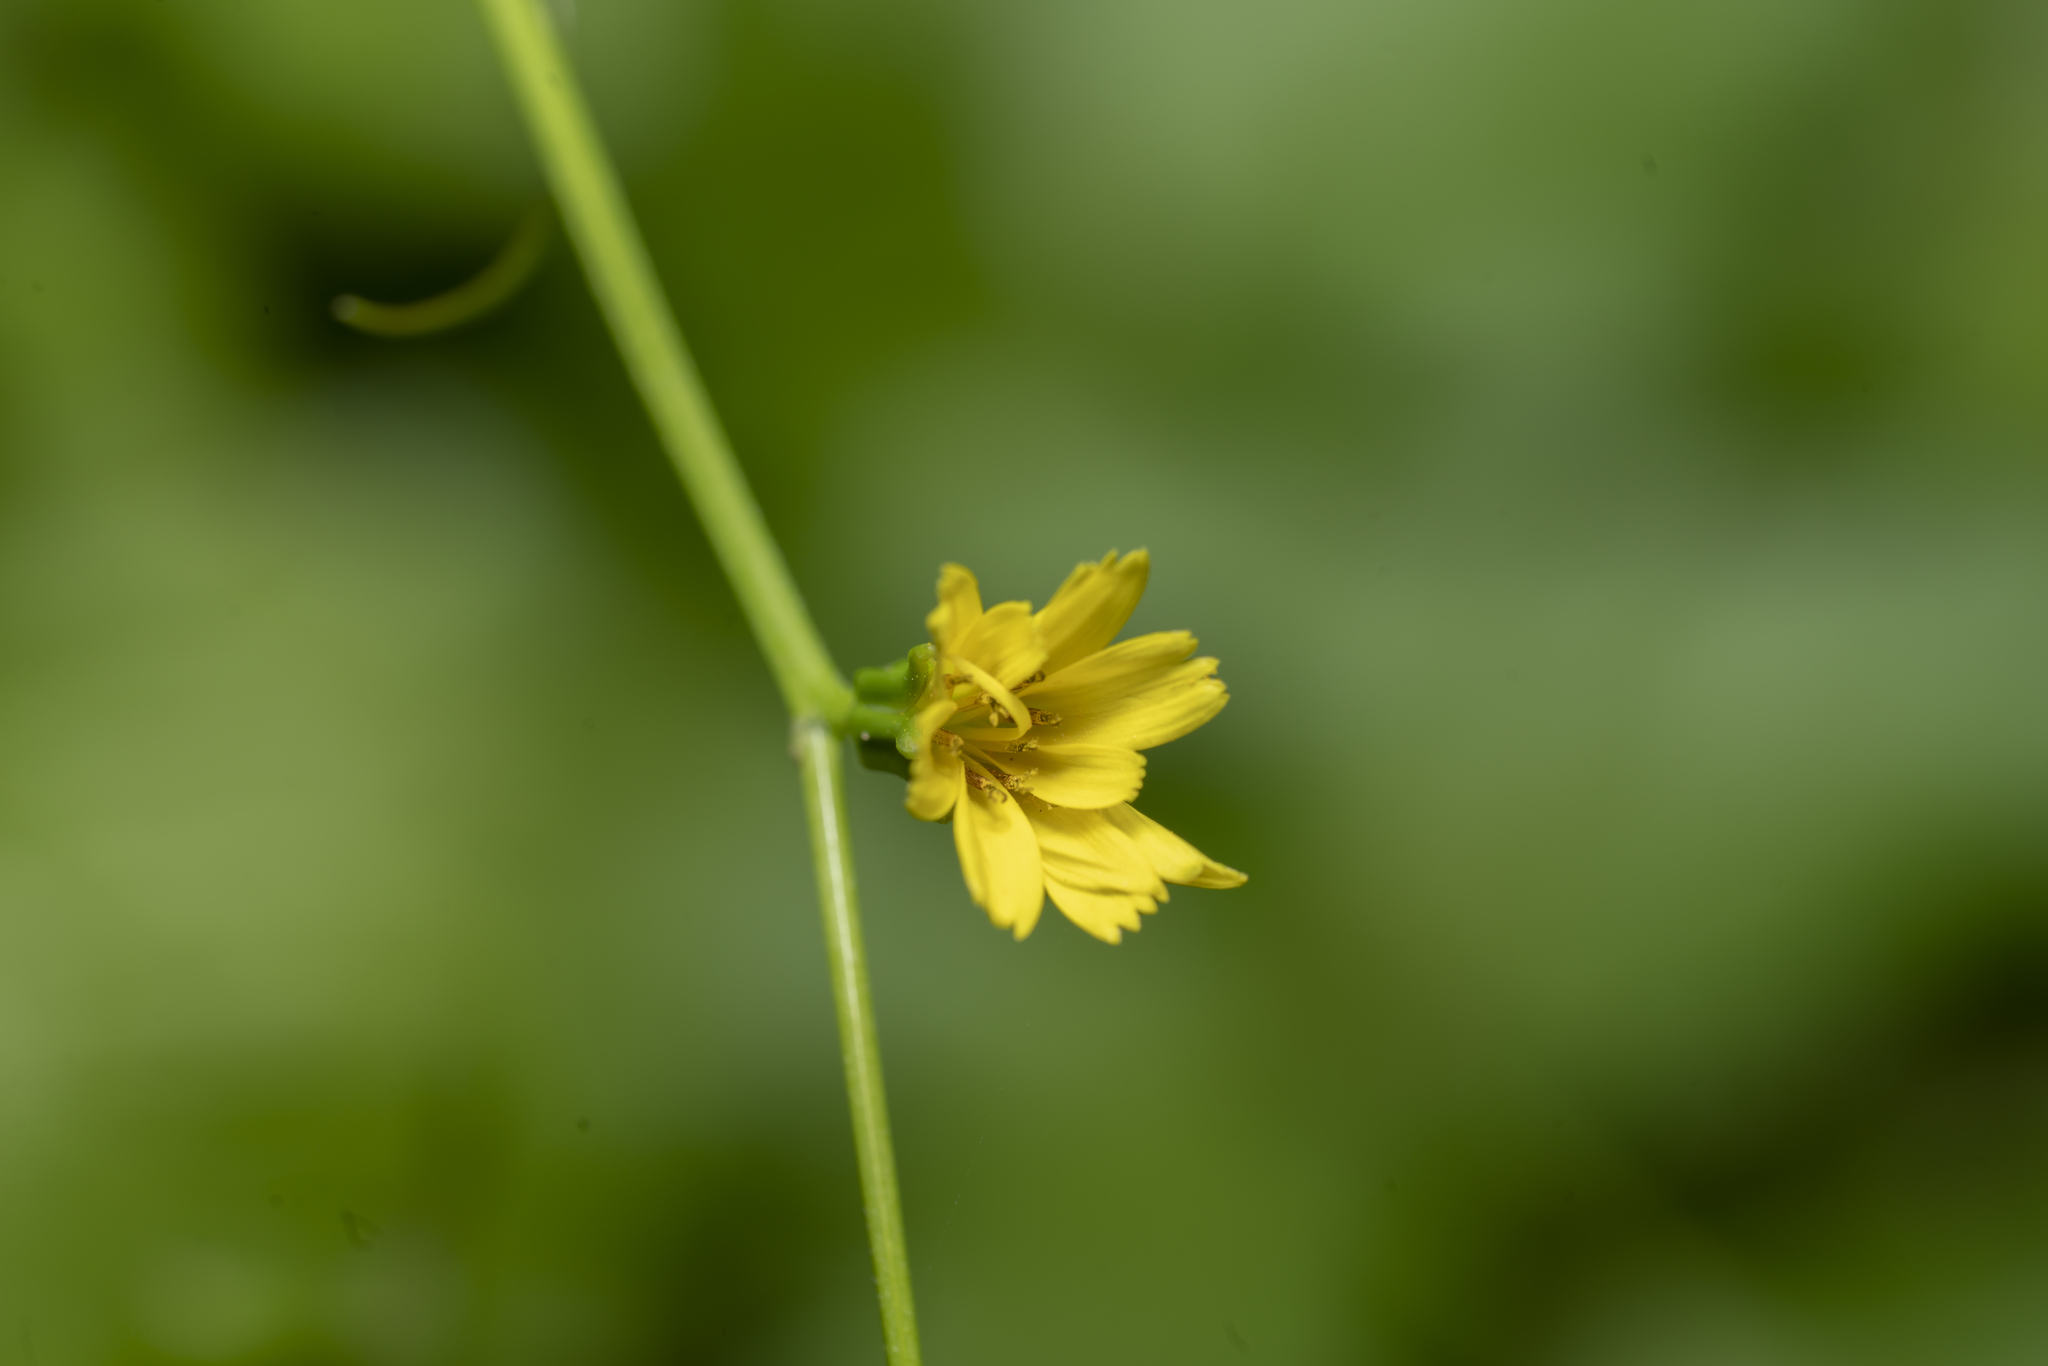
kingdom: Plantae
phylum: Tracheophyta
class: Magnoliopsida
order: Asterales
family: Asteraceae
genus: Rhagadiolus
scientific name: Rhagadiolus edulis
